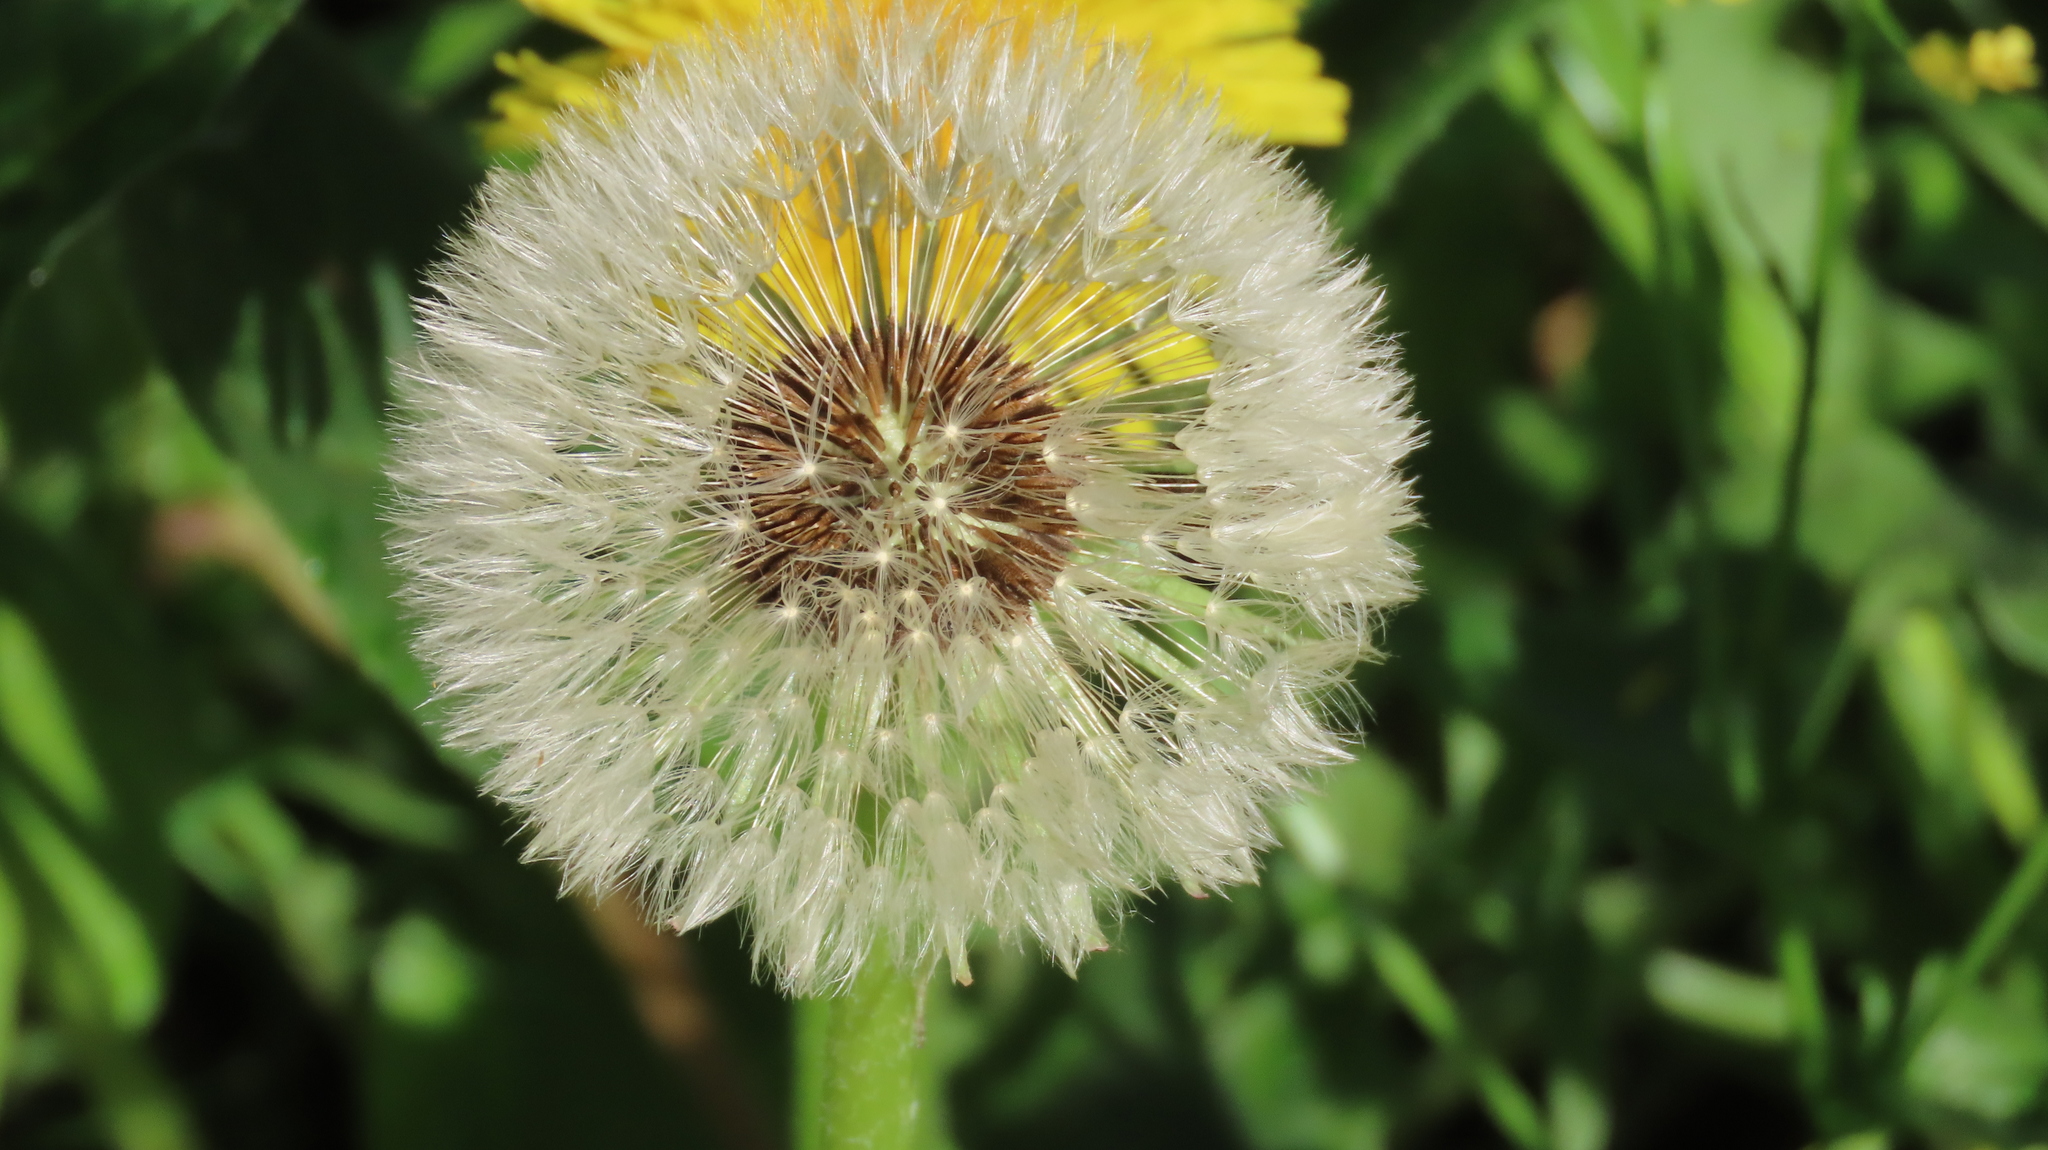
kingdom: Plantae
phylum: Tracheophyta
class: Magnoliopsida
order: Asterales
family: Asteraceae
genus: Taraxacum
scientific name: Taraxacum officinale
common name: Common dandelion
